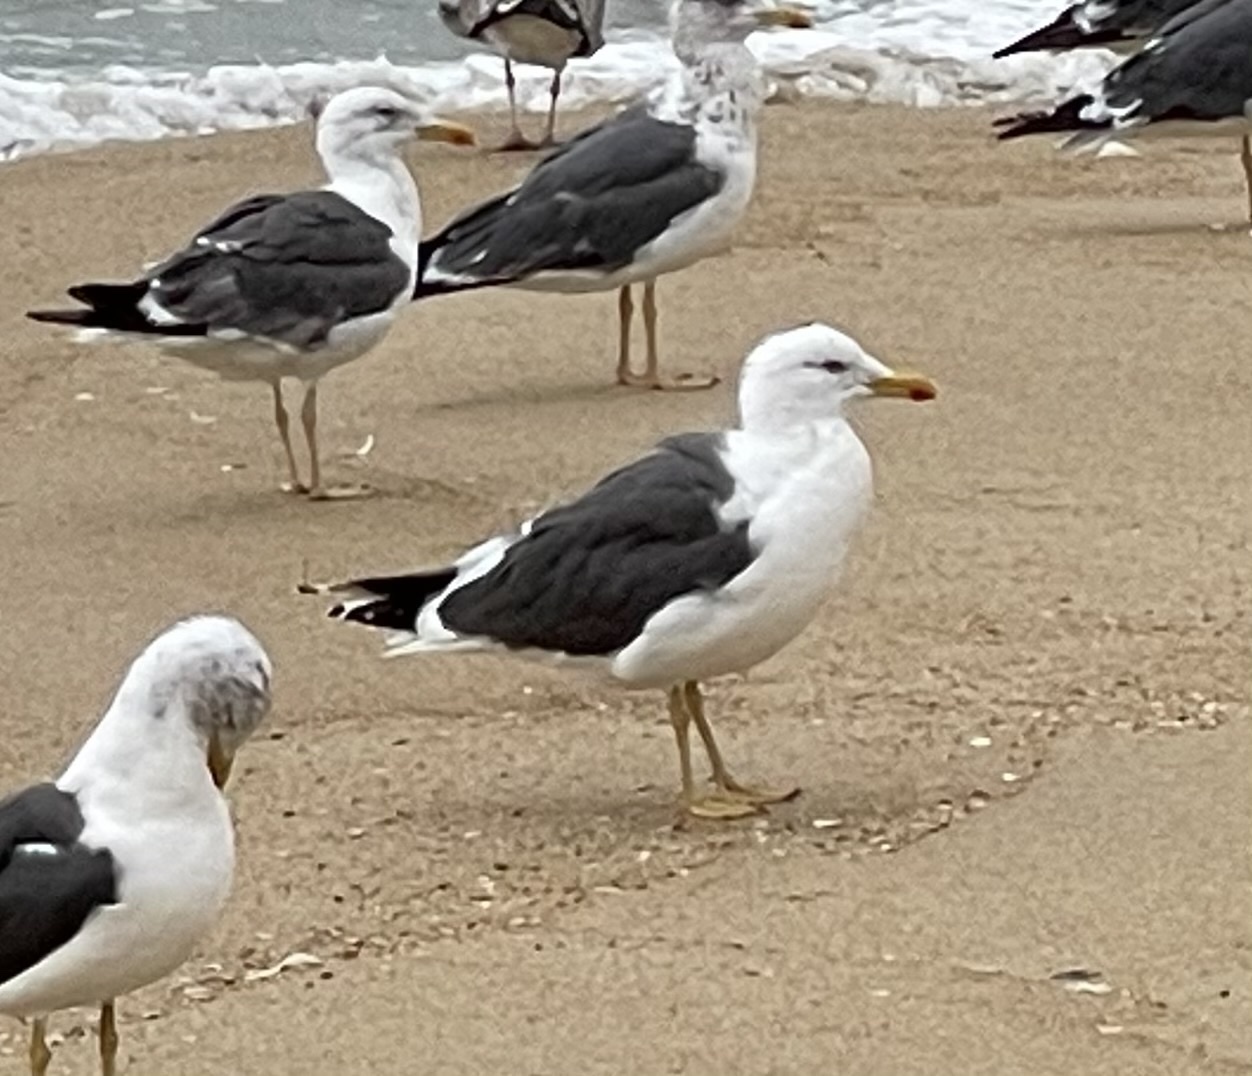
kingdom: Animalia
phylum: Chordata
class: Aves
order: Charadriiformes
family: Laridae
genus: Larus
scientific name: Larus fuscus
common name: Lesser black-backed gull
